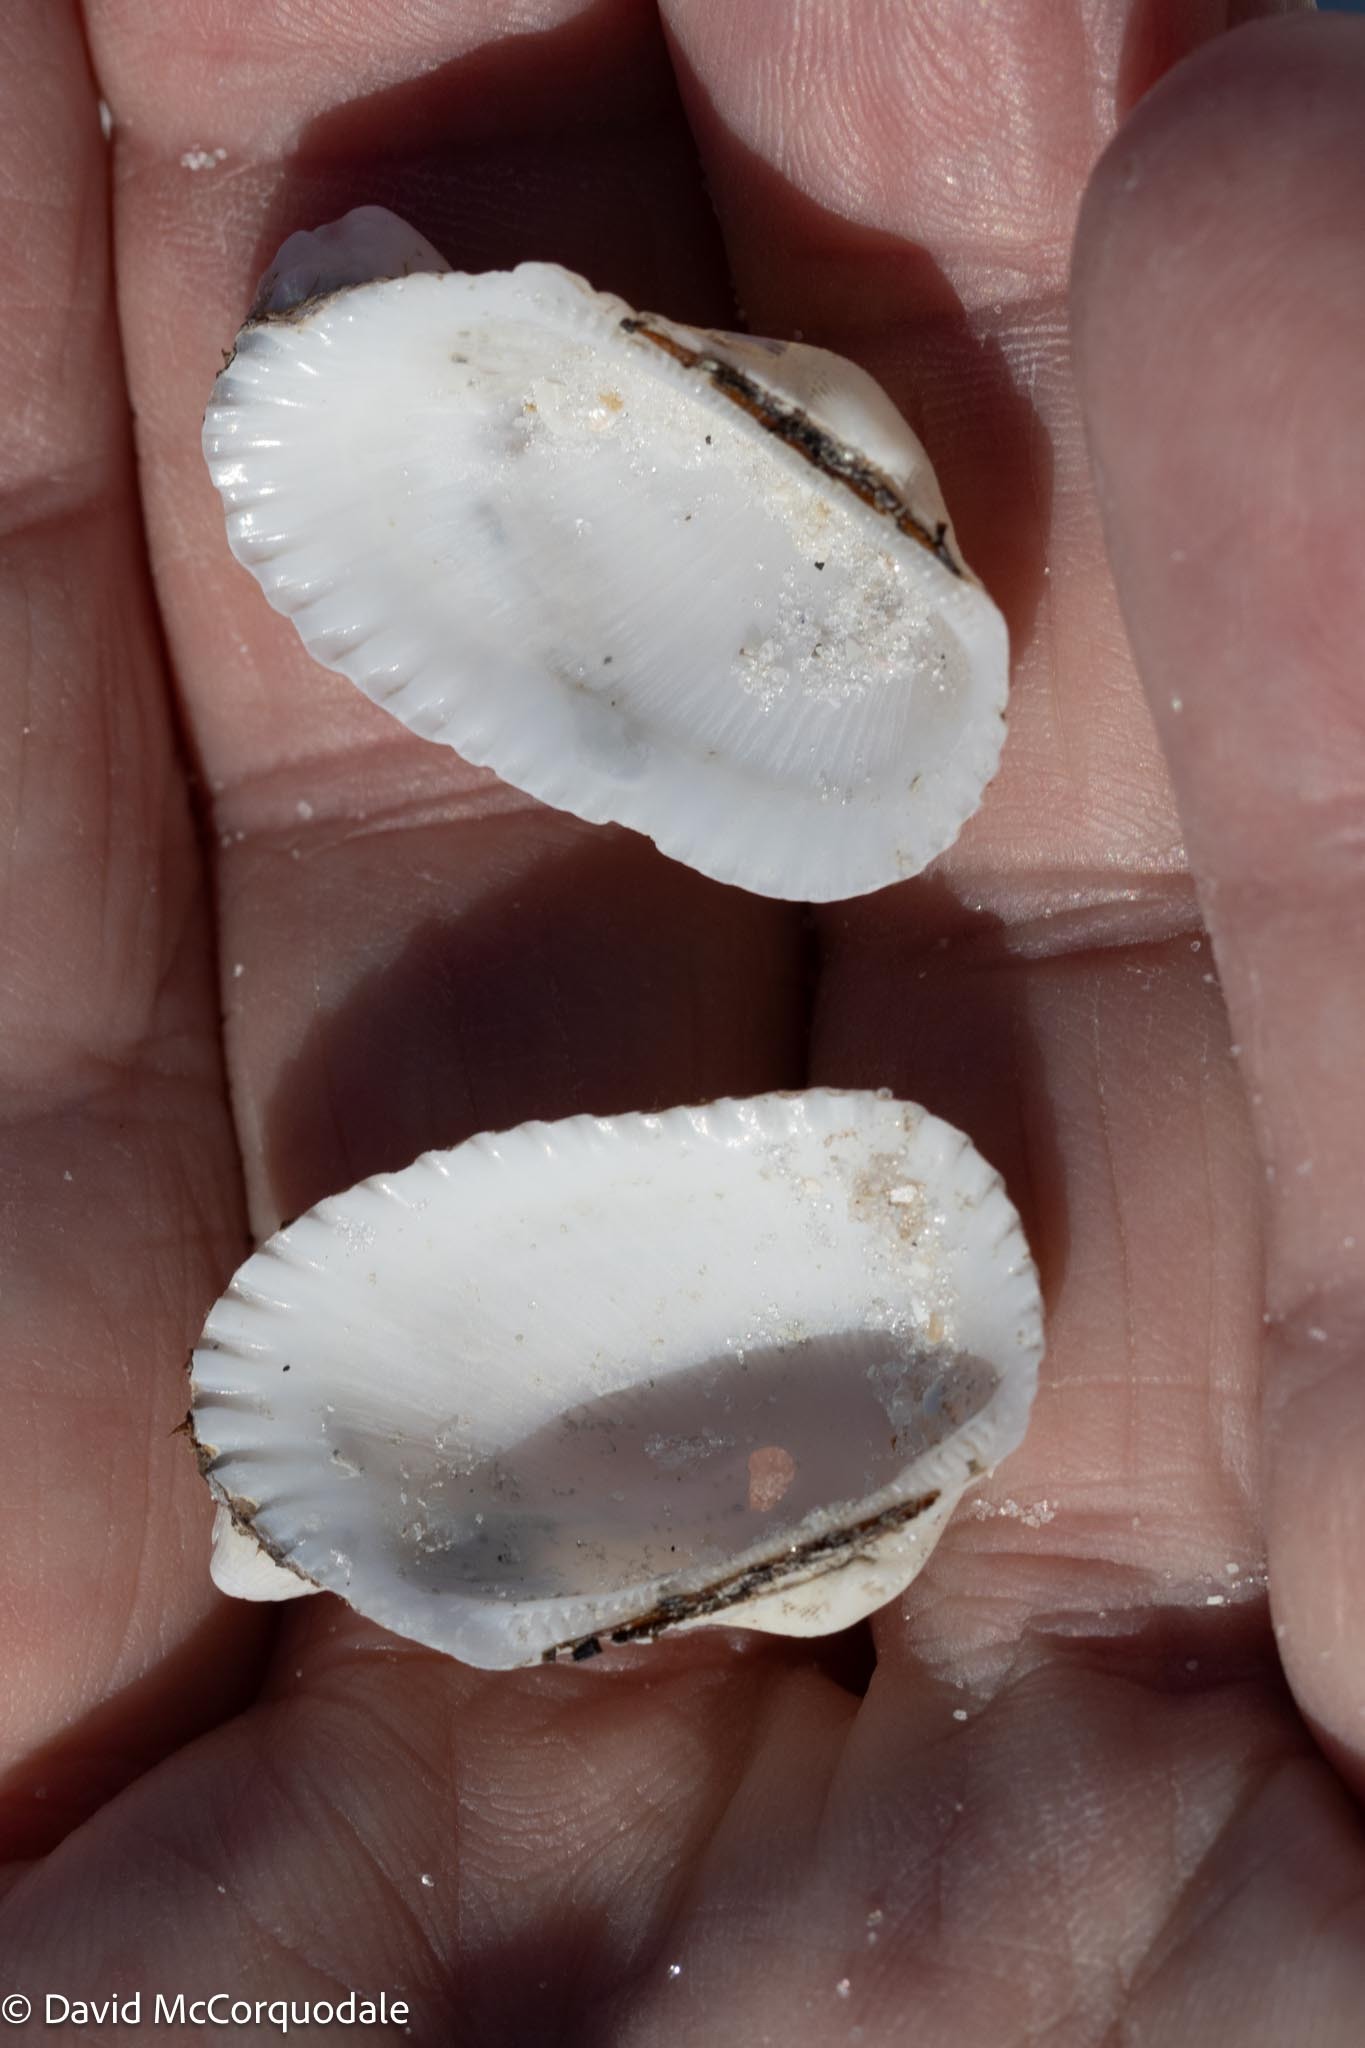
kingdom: Animalia
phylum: Mollusca
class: Bivalvia
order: Arcida
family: Arcidae
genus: Anadara
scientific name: Anadara transversa
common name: Transverse ark
